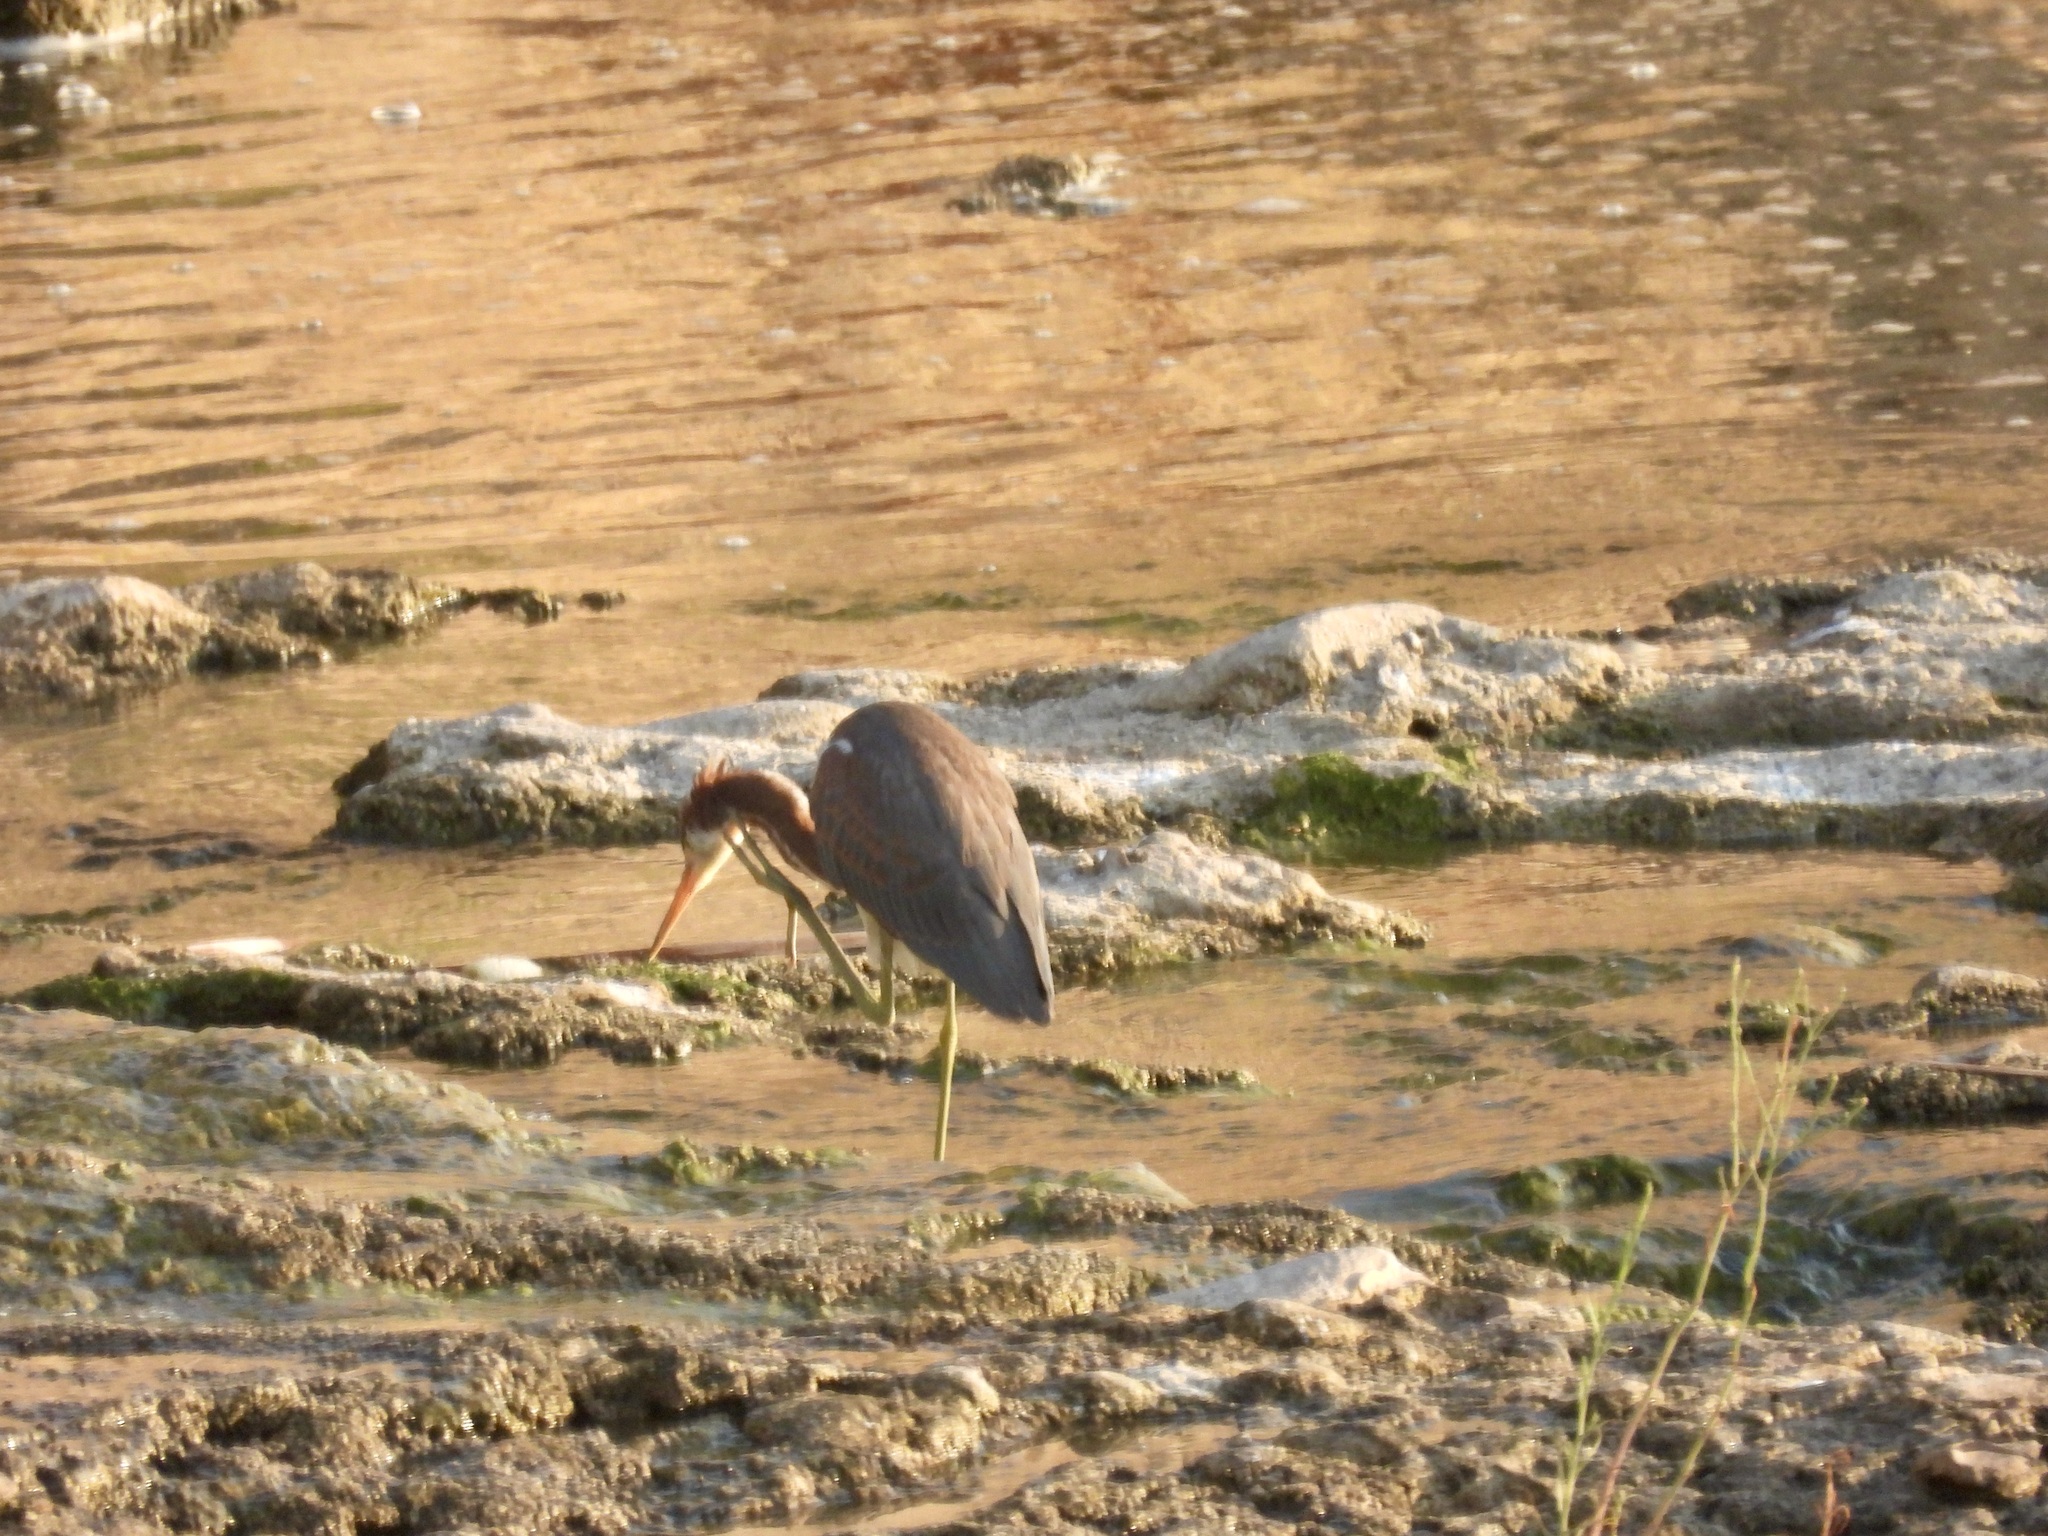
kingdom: Animalia
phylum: Chordata
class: Aves
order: Pelecaniformes
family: Ardeidae
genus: Egretta
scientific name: Egretta tricolor
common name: Tricolored heron
